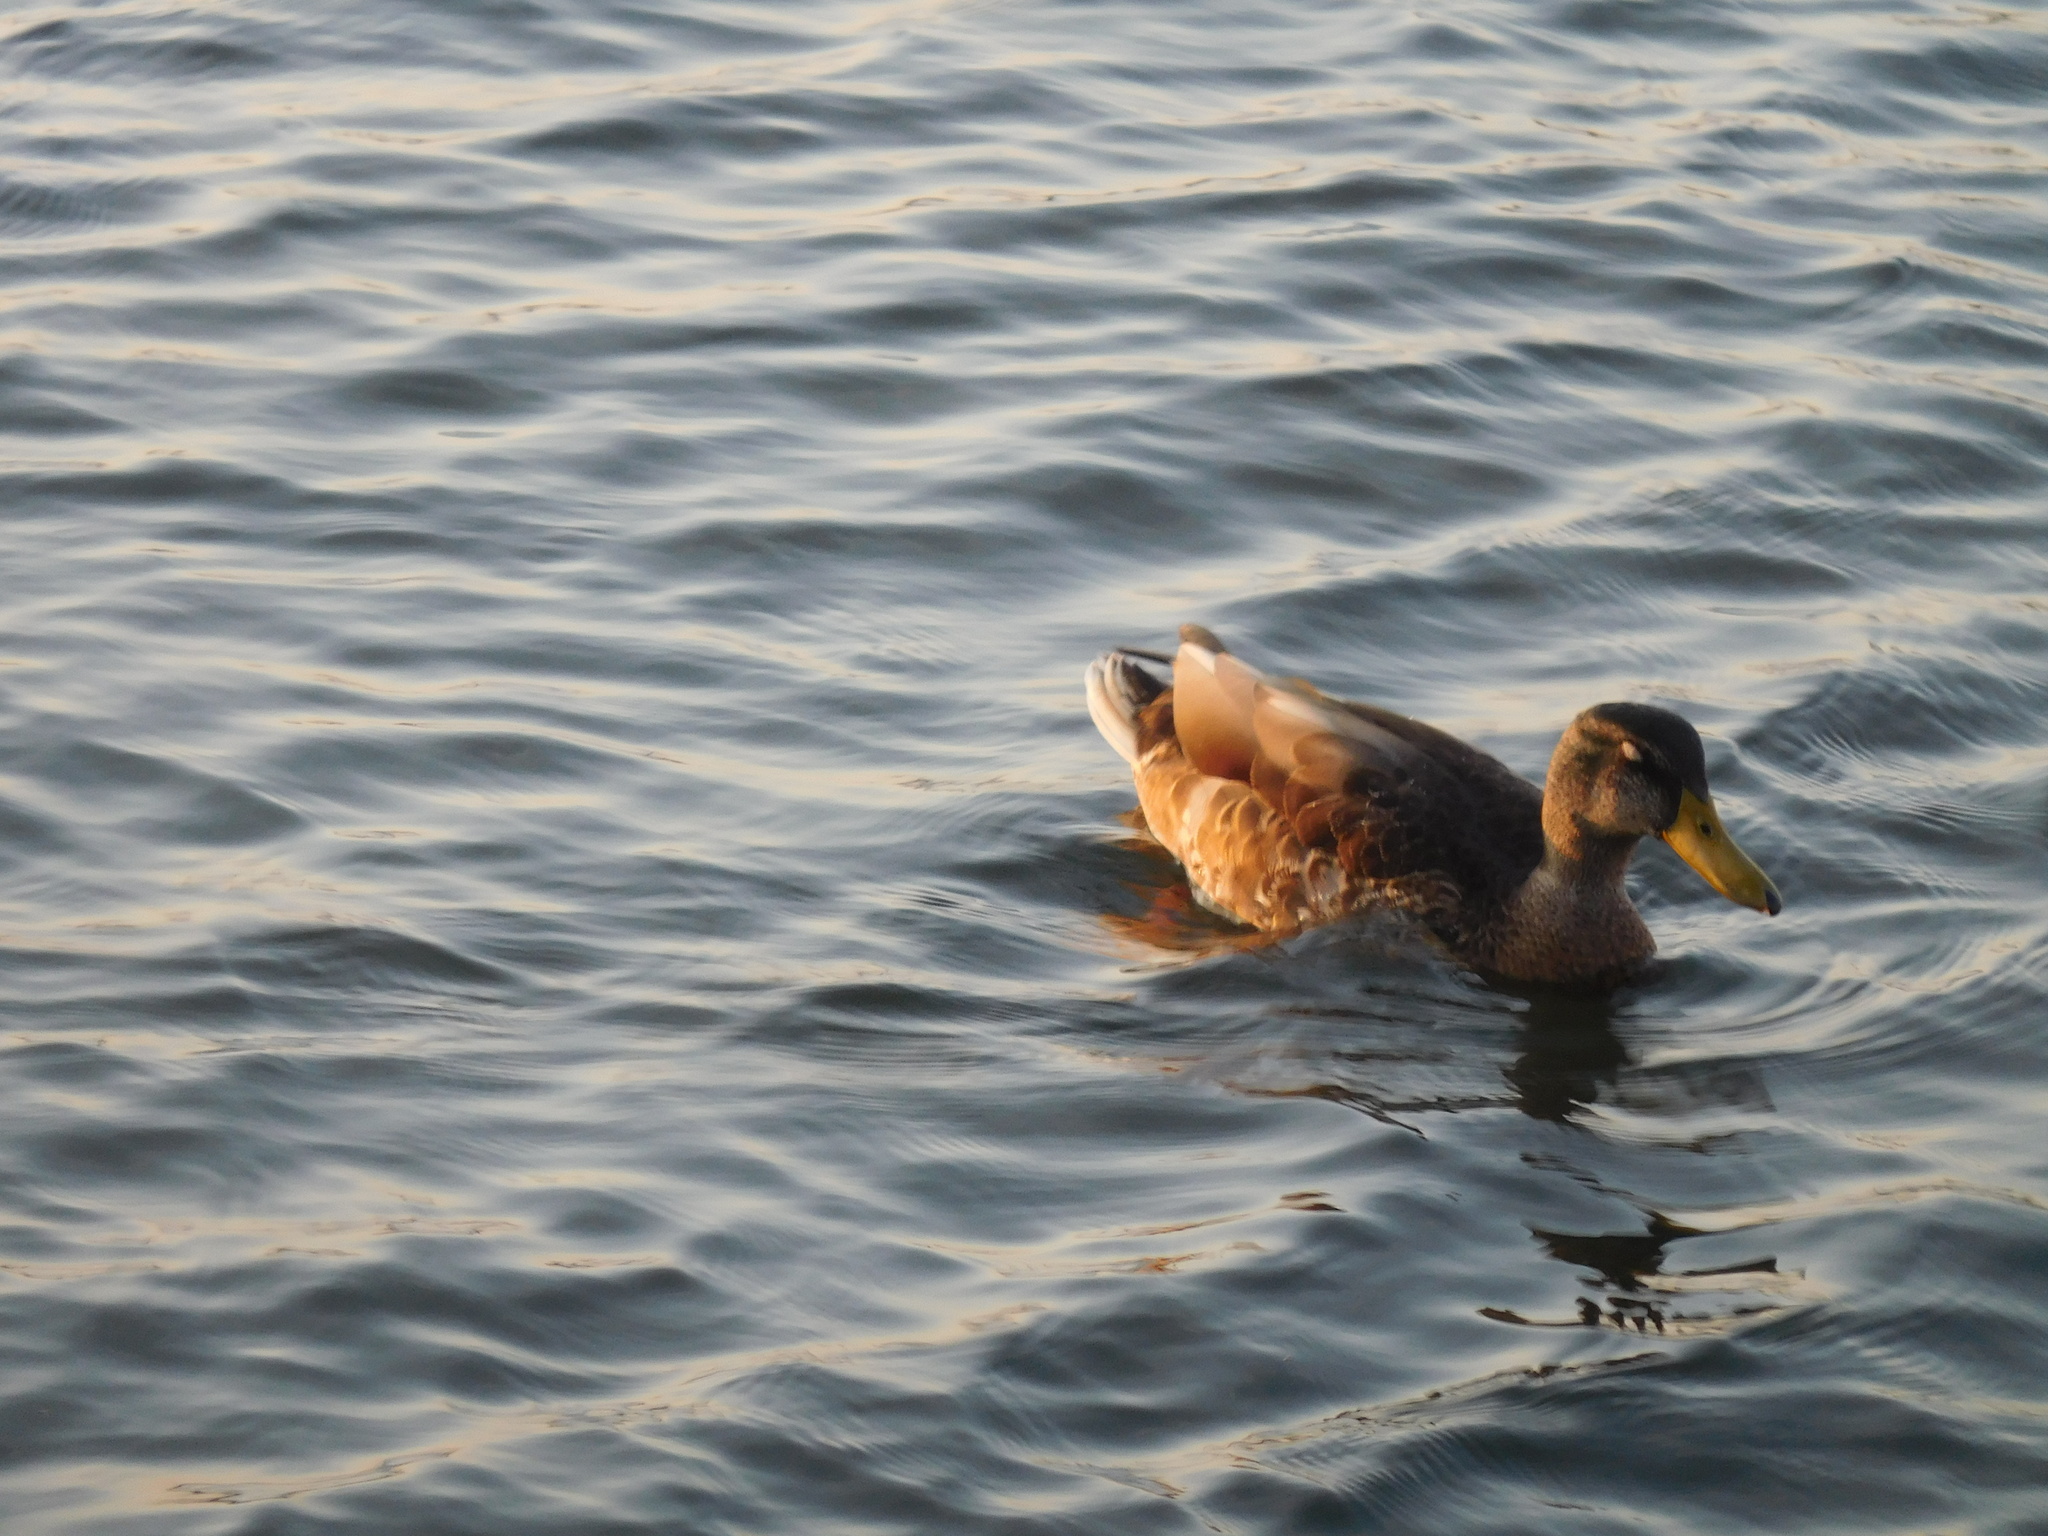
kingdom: Animalia
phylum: Chordata
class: Aves
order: Anseriformes
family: Anatidae
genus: Anas
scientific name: Anas platyrhynchos
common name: Mallard
